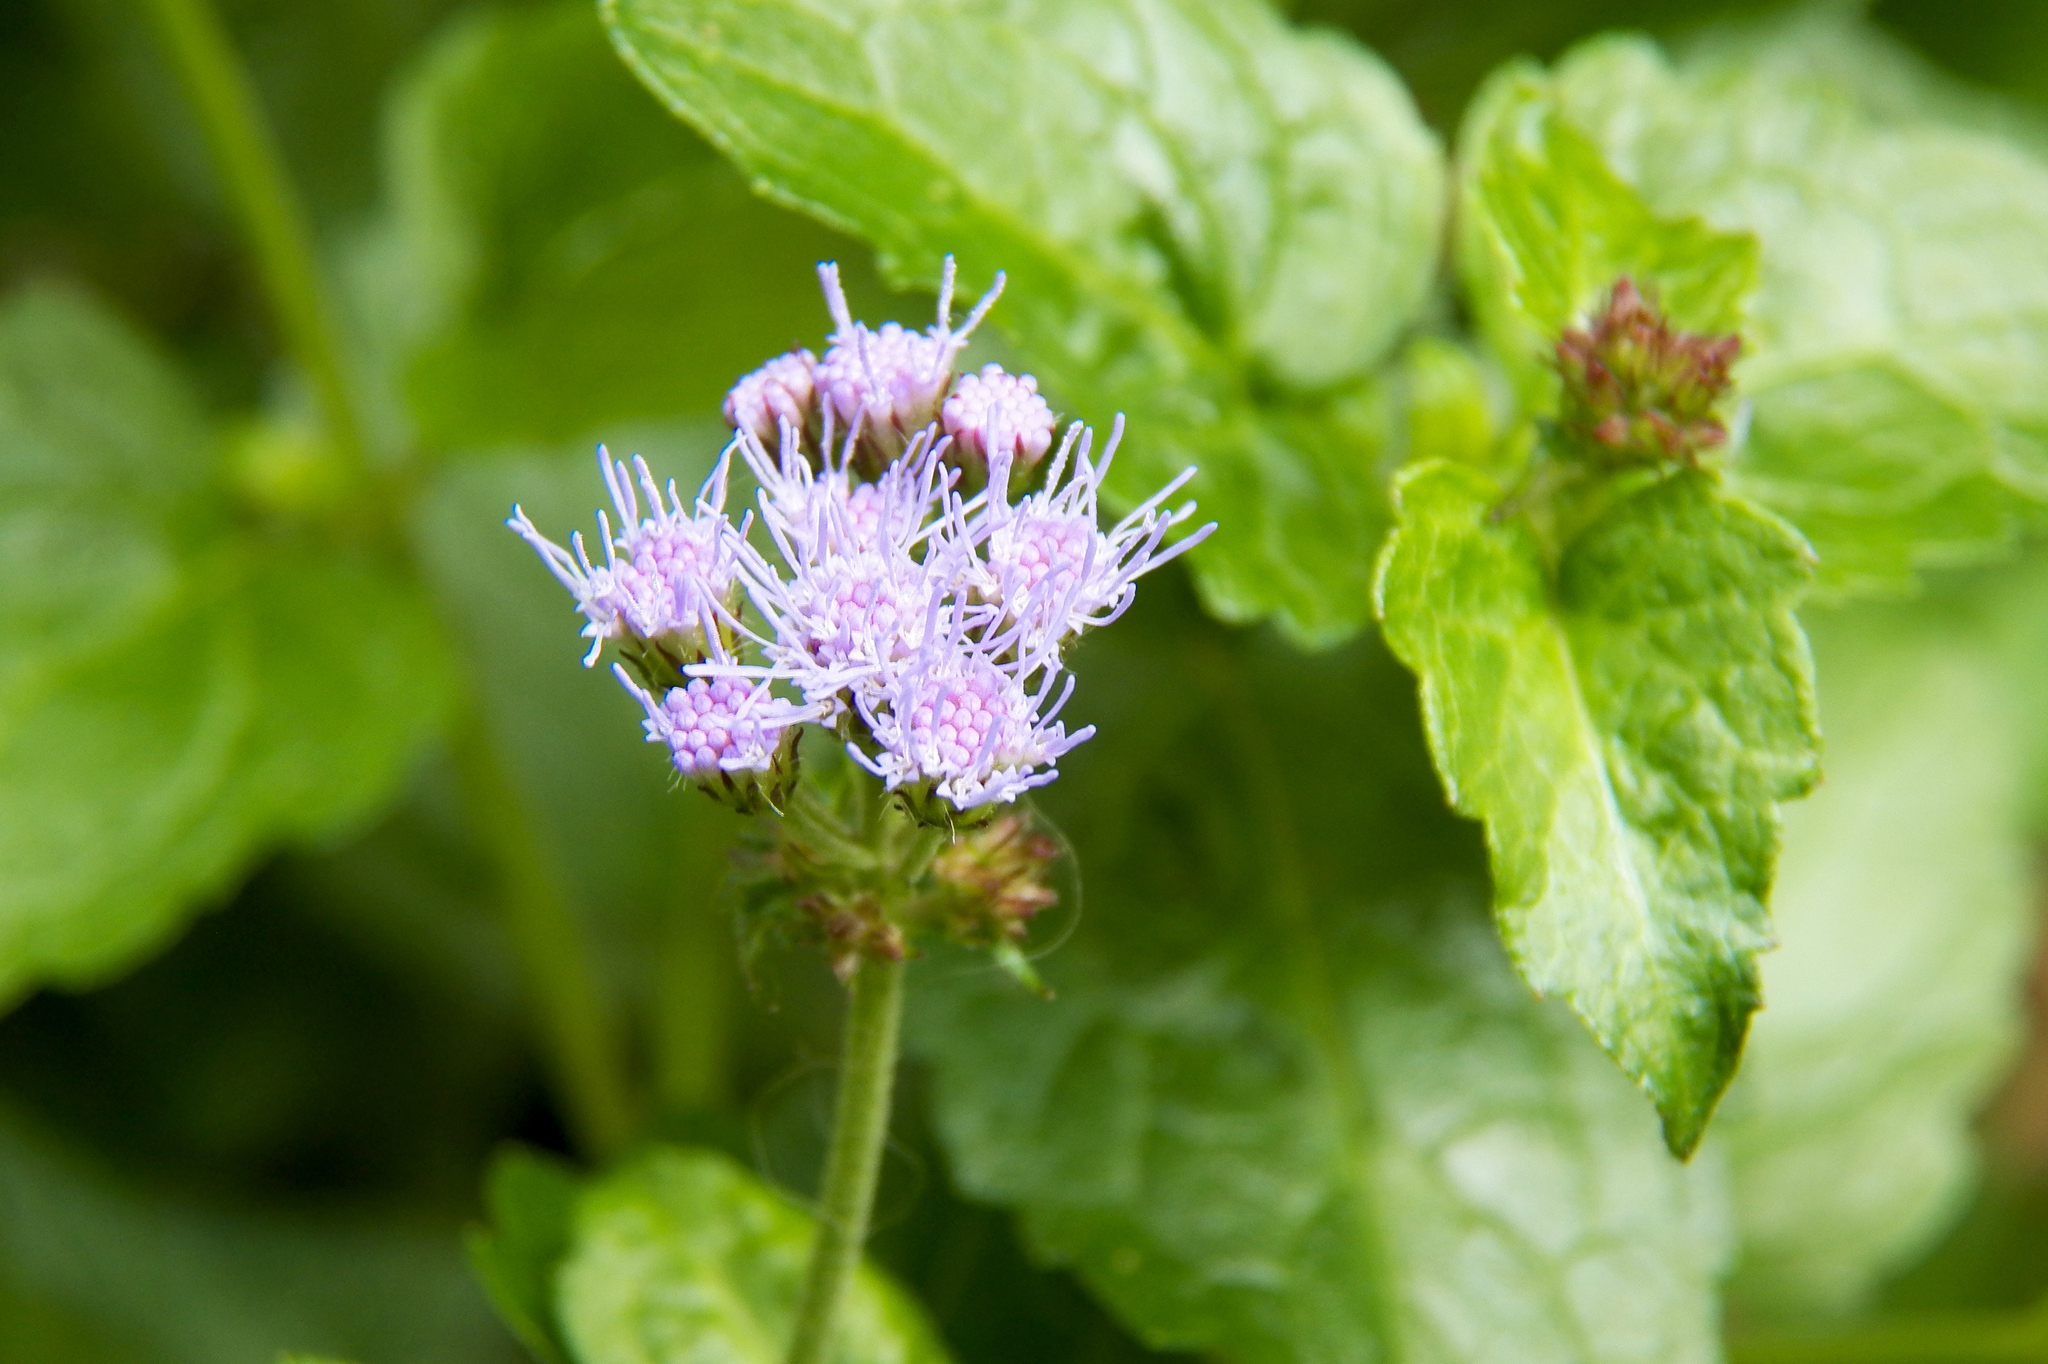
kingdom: Plantae
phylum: Tracheophyta
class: Magnoliopsida
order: Asterales
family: Asteraceae
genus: Conoclinium
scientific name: Conoclinium coelestinum
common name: Blue mistflower
